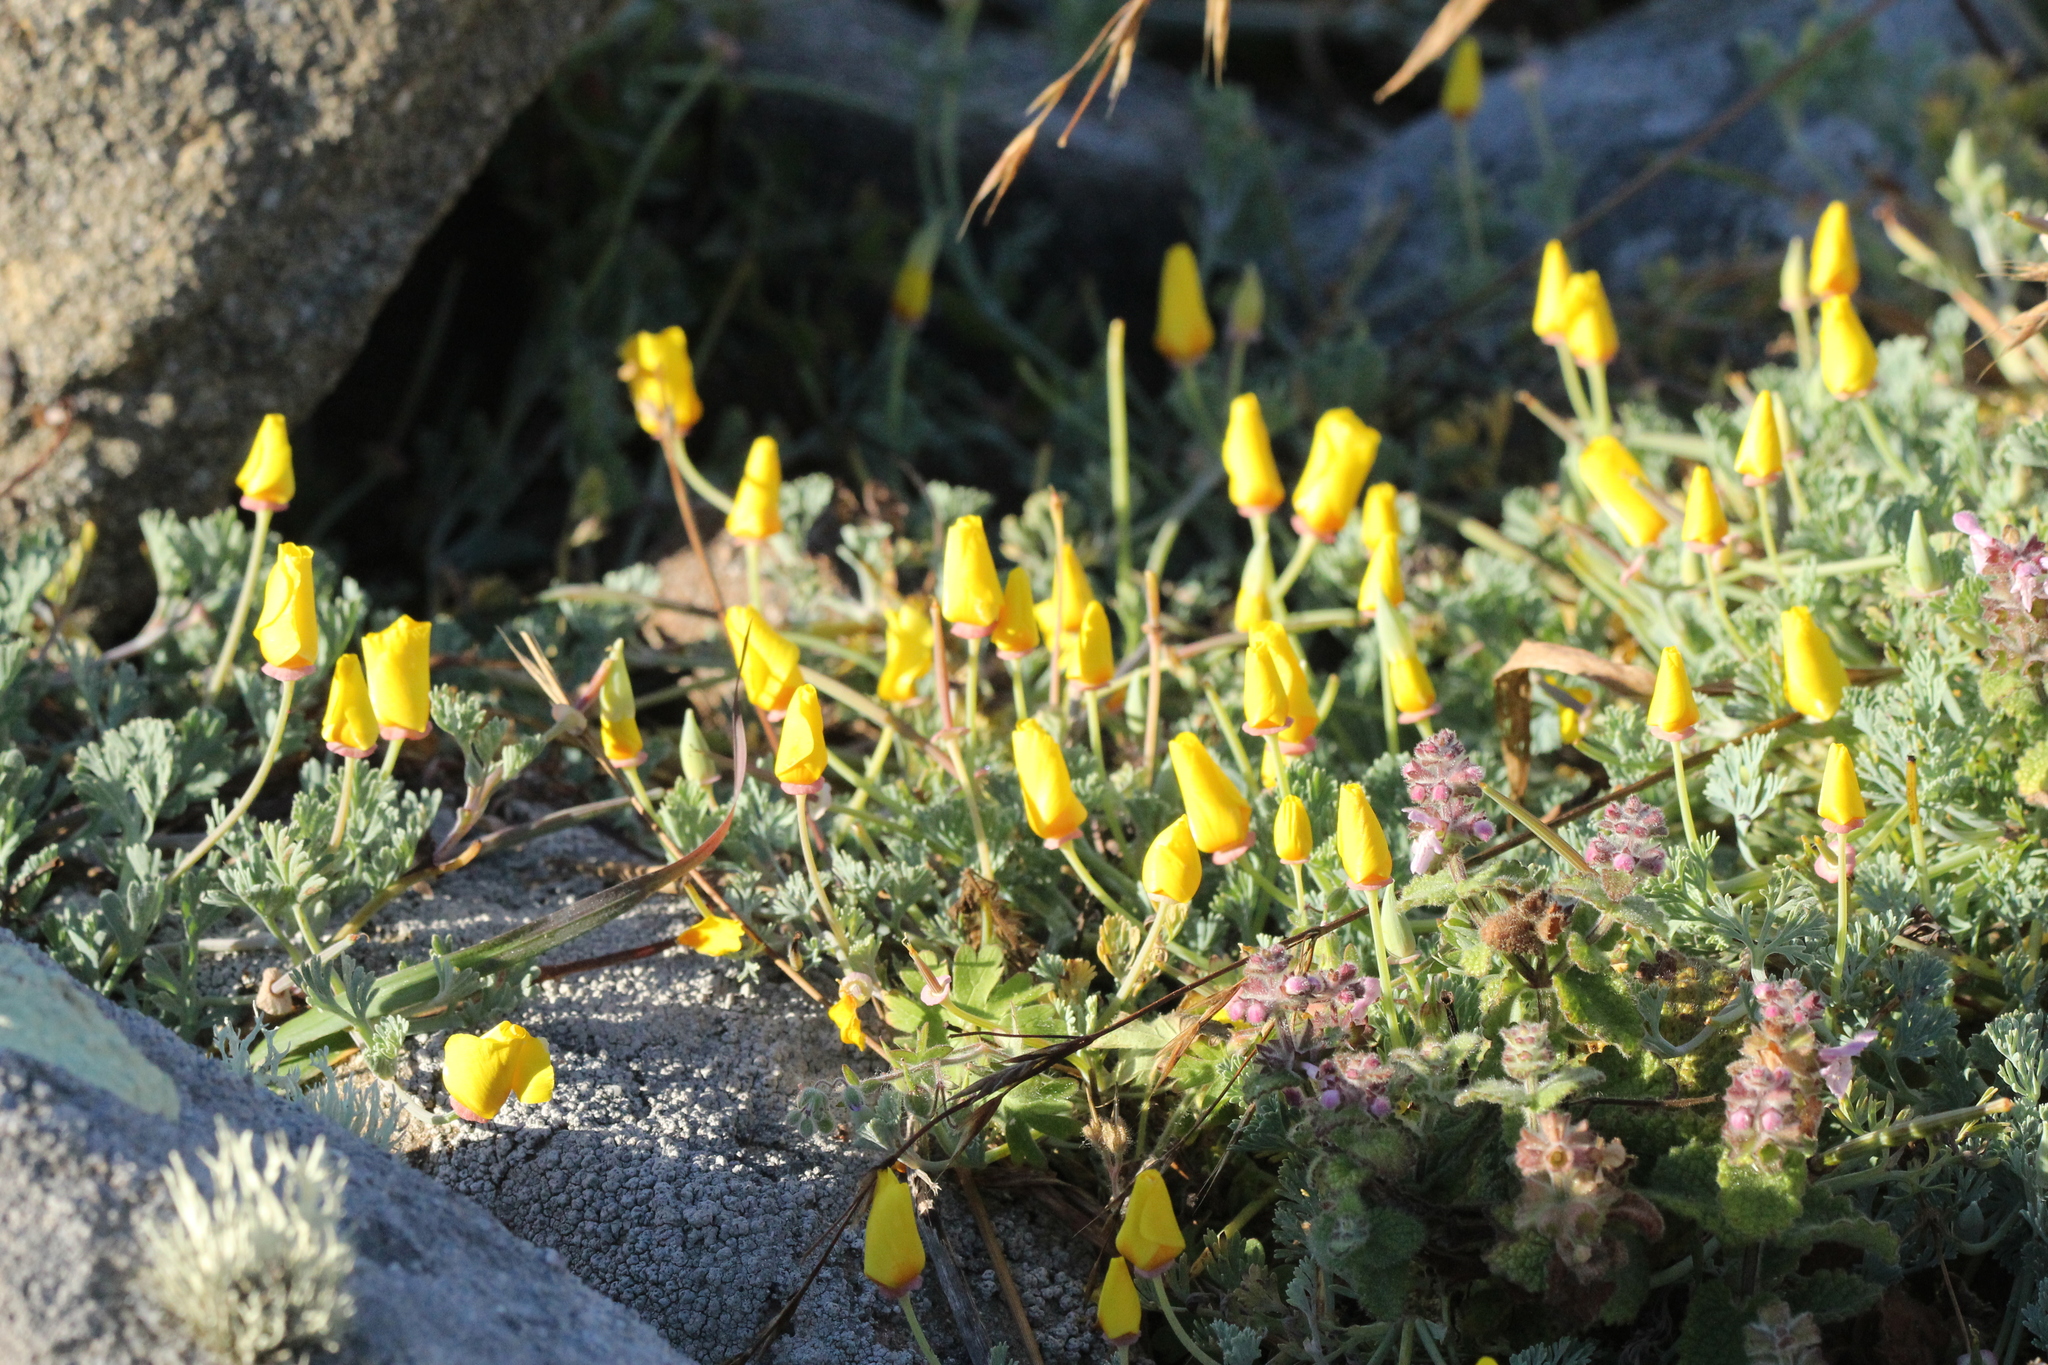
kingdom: Plantae
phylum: Tracheophyta
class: Magnoliopsida
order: Ranunculales
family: Papaveraceae
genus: Eschscholzia
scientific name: Eschscholzia californica
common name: California poppy
